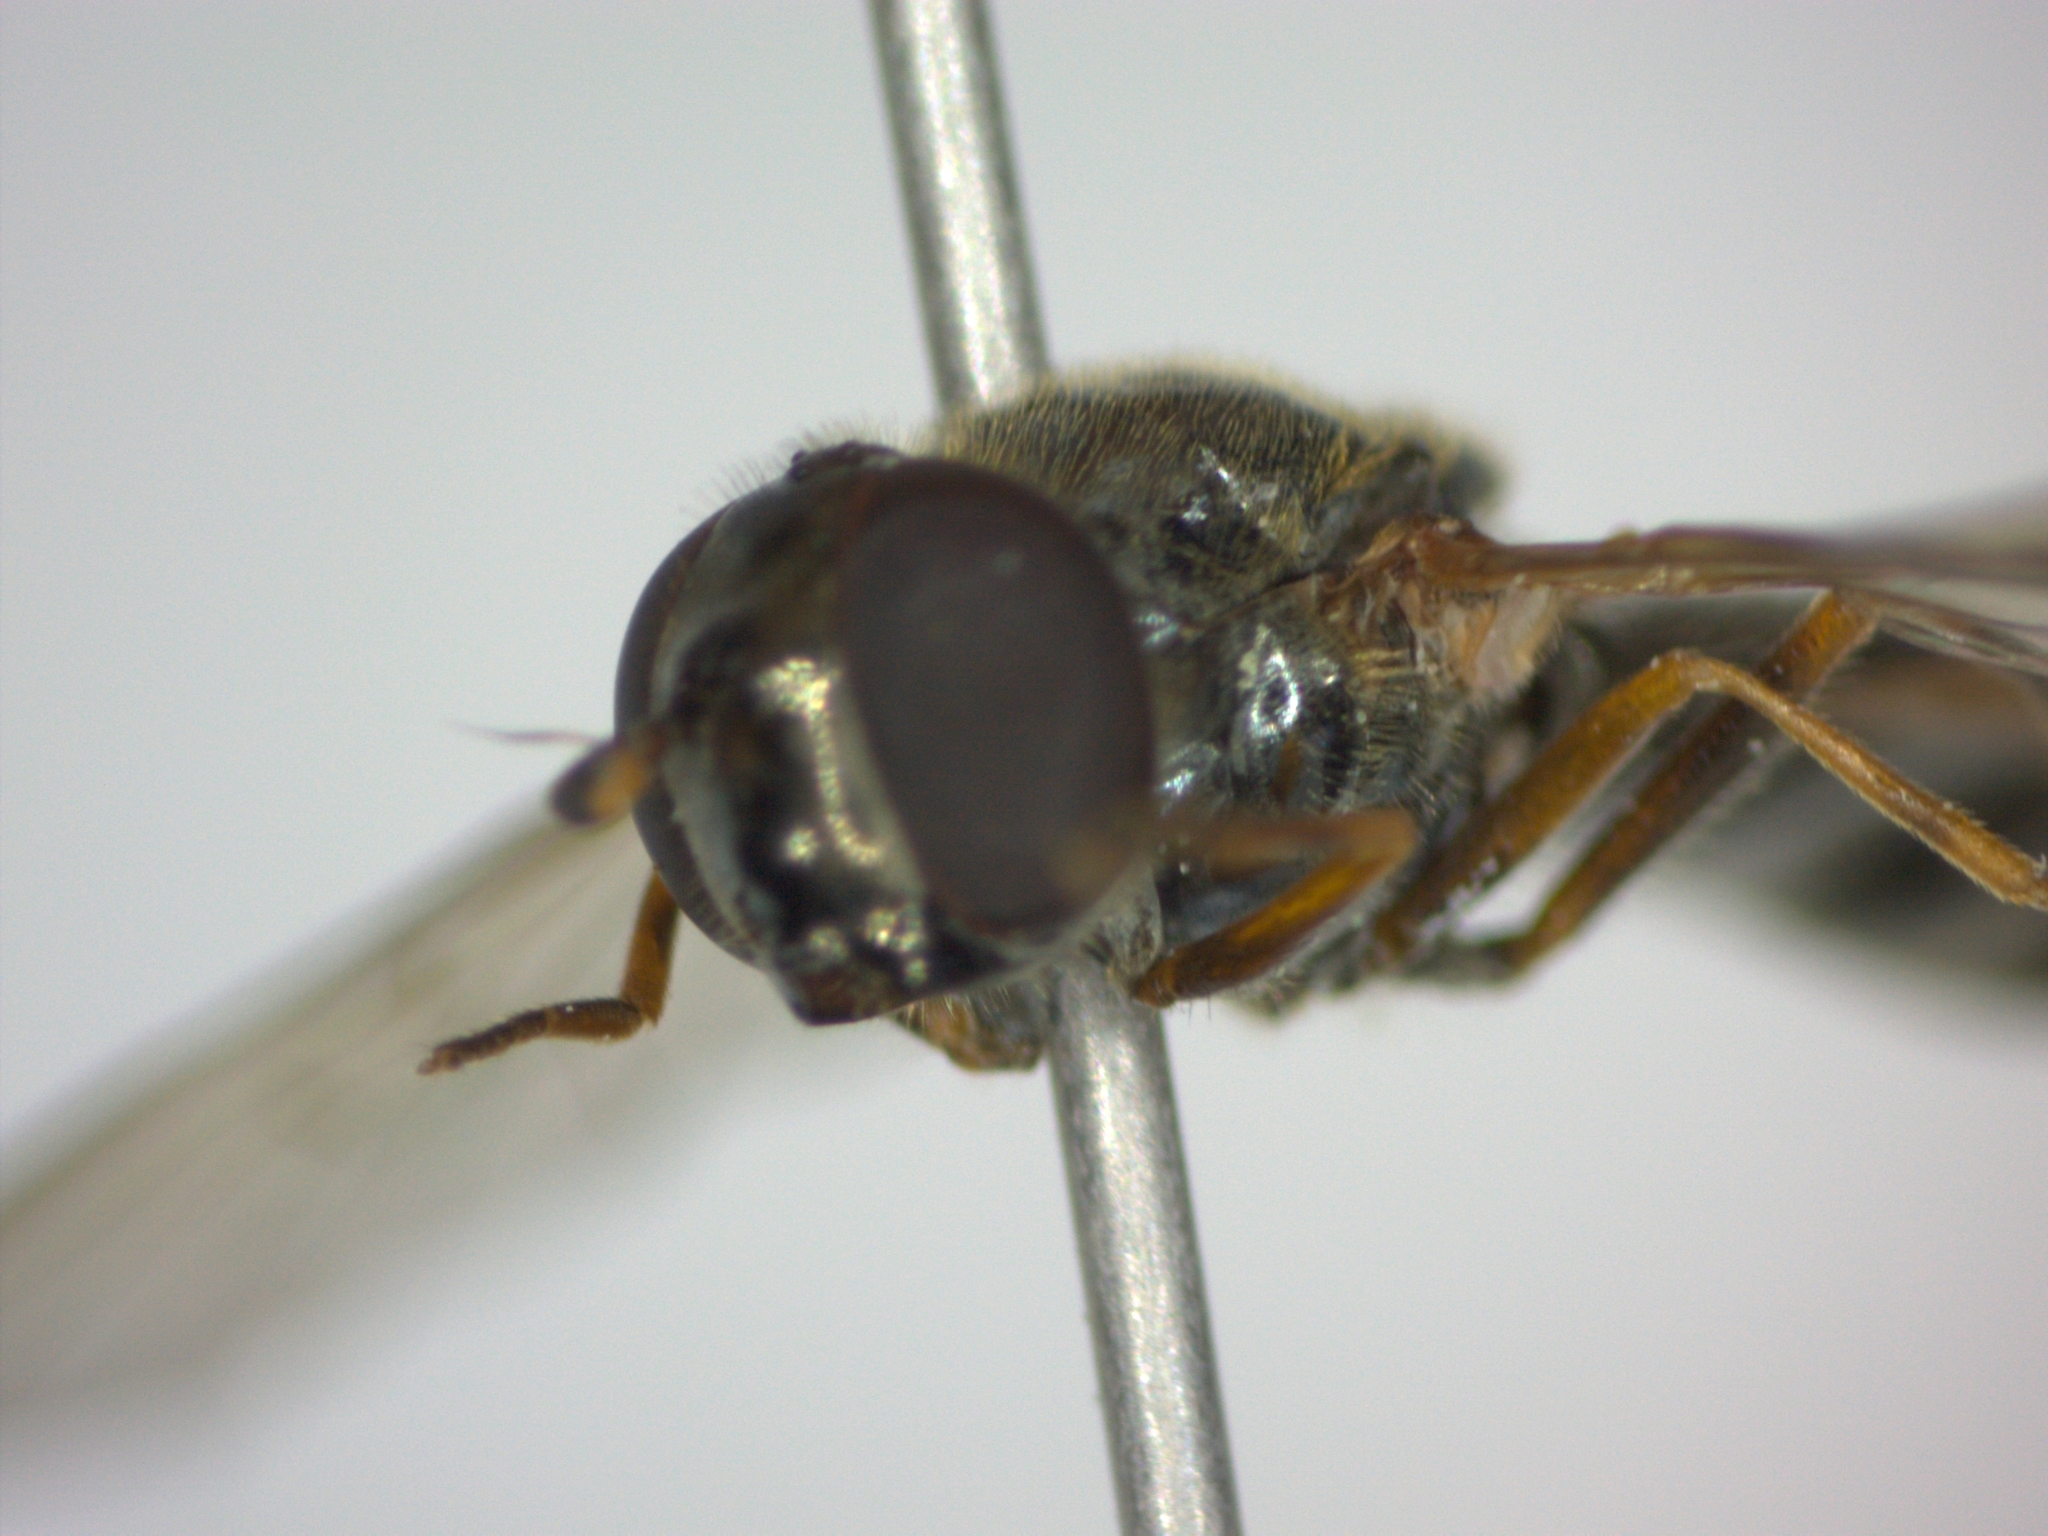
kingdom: Animalia
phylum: Arthropoda
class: Insecta
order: Diptera
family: Syrphidae
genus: Melanostoma
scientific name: Melanostoma scalare
